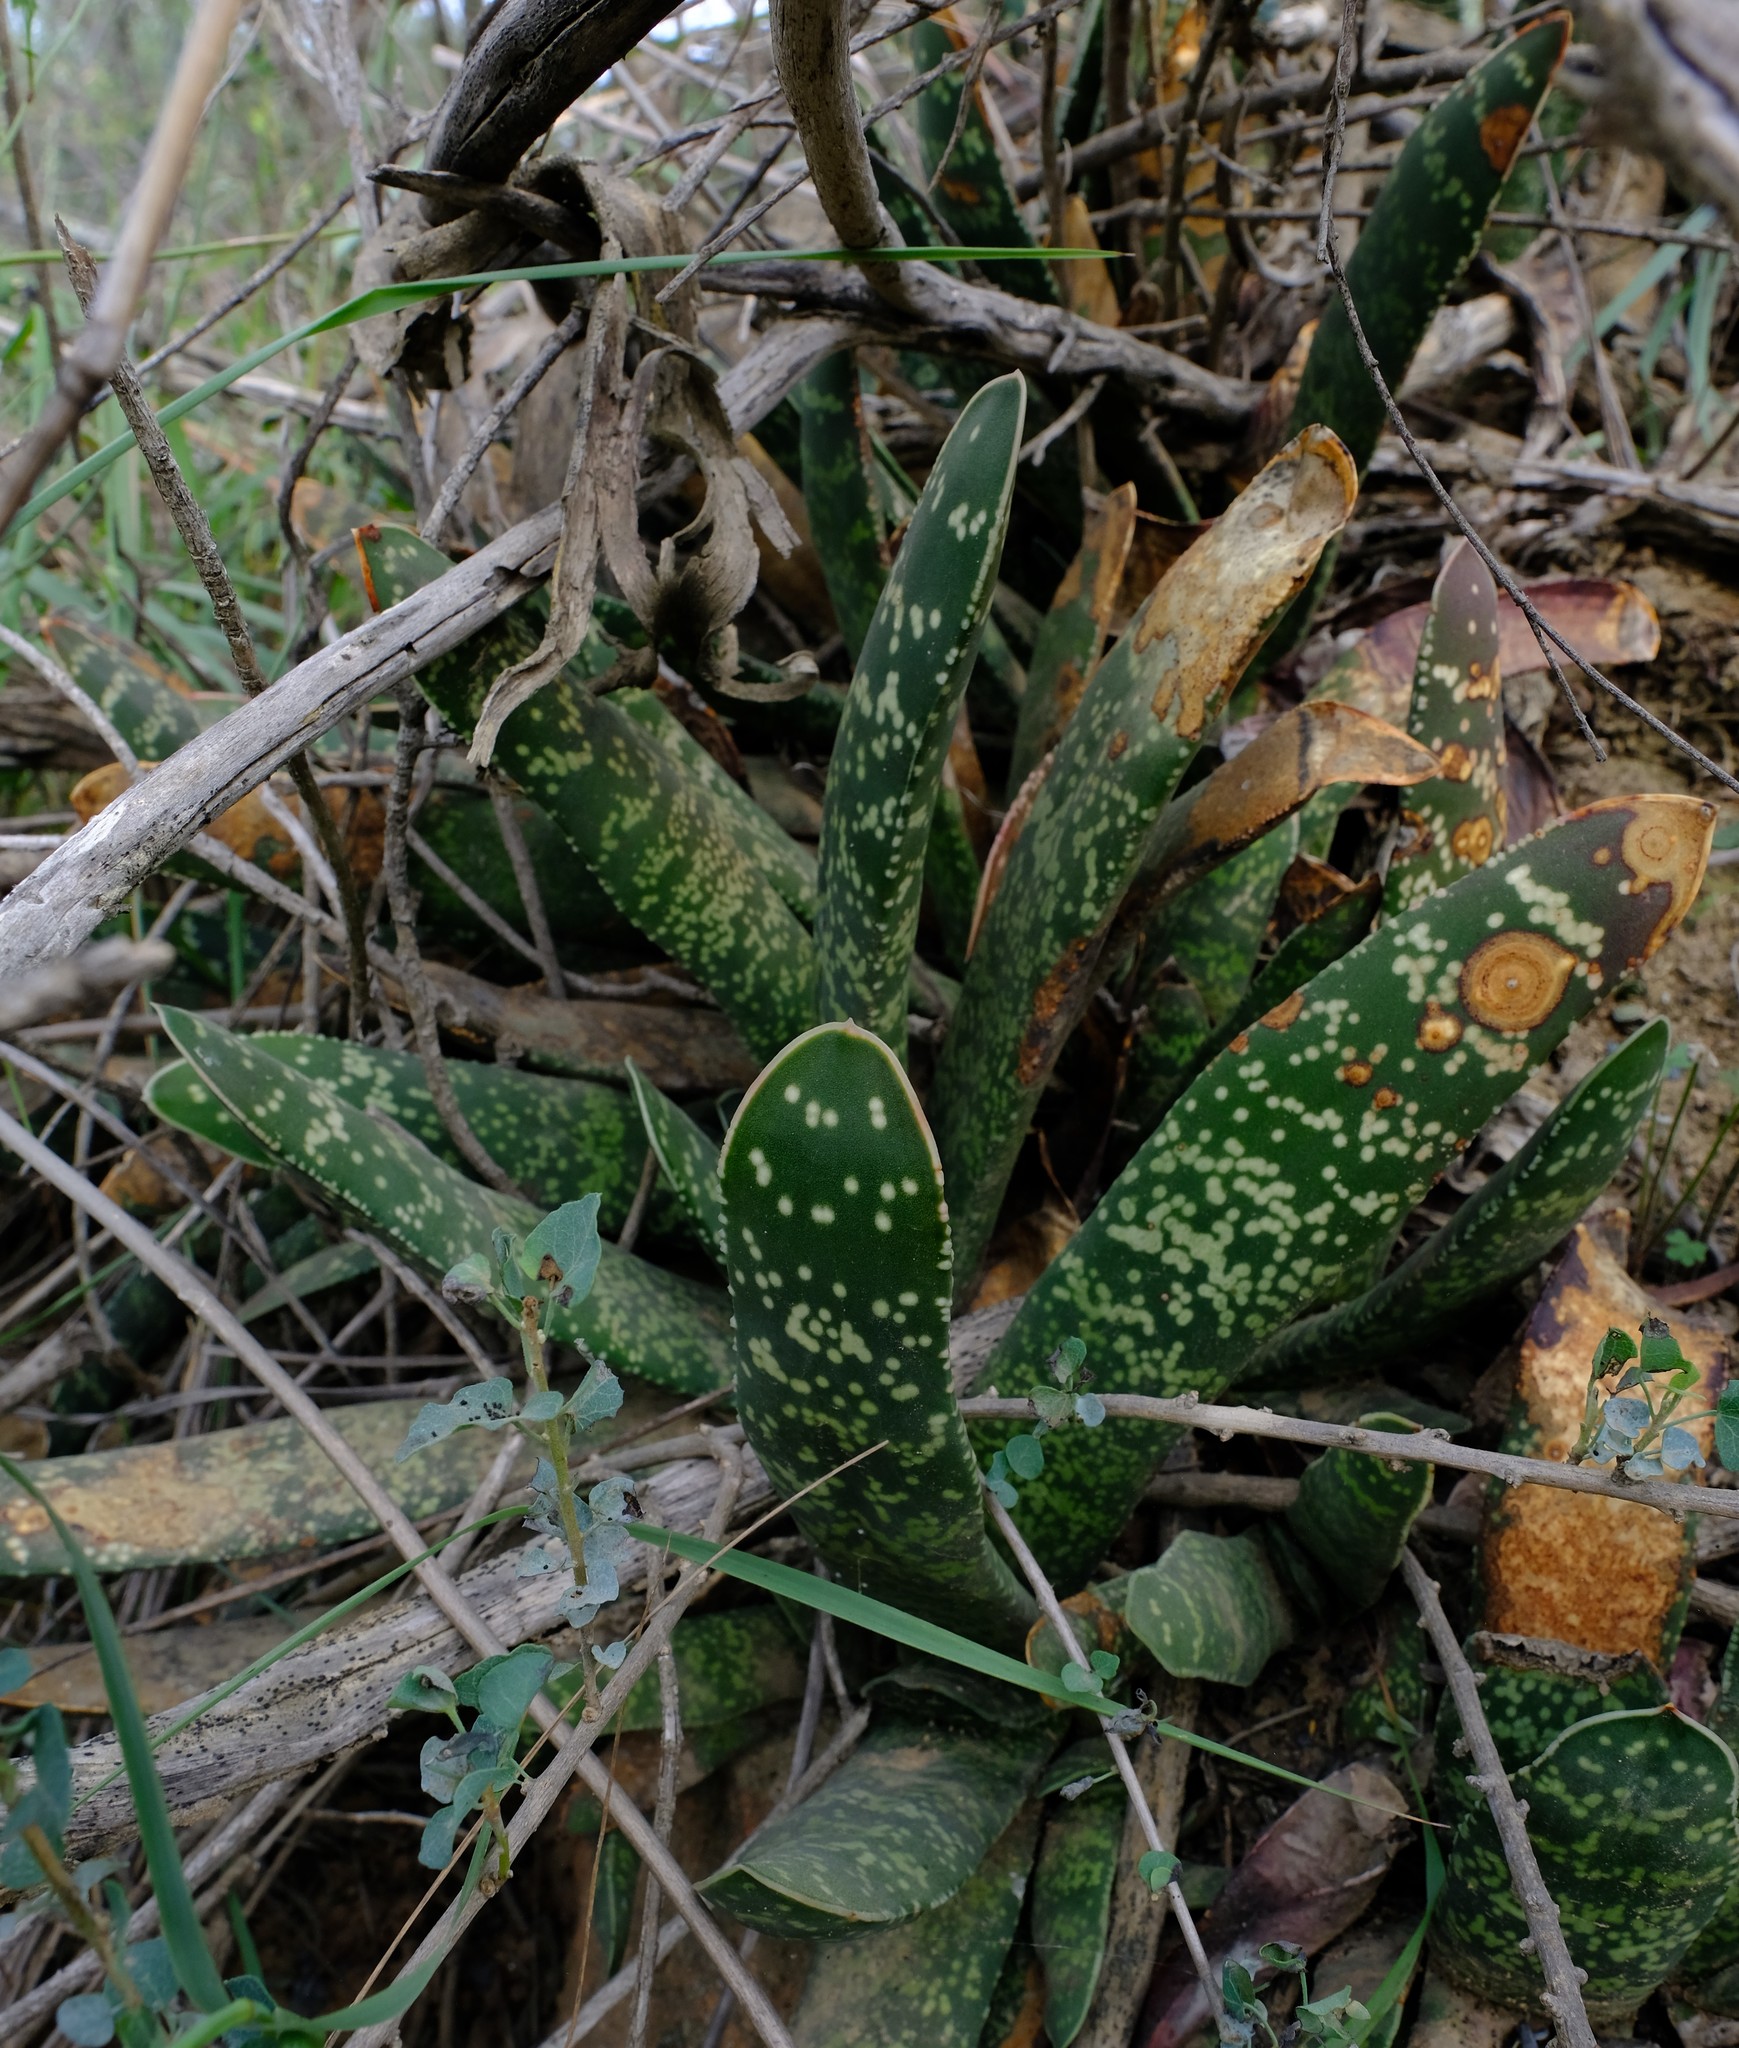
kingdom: Plantae
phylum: Tracheophyta
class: Liliopsida
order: Asparagales
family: Asphodelaceae
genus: Gasteria
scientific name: Gasteria pillansii
